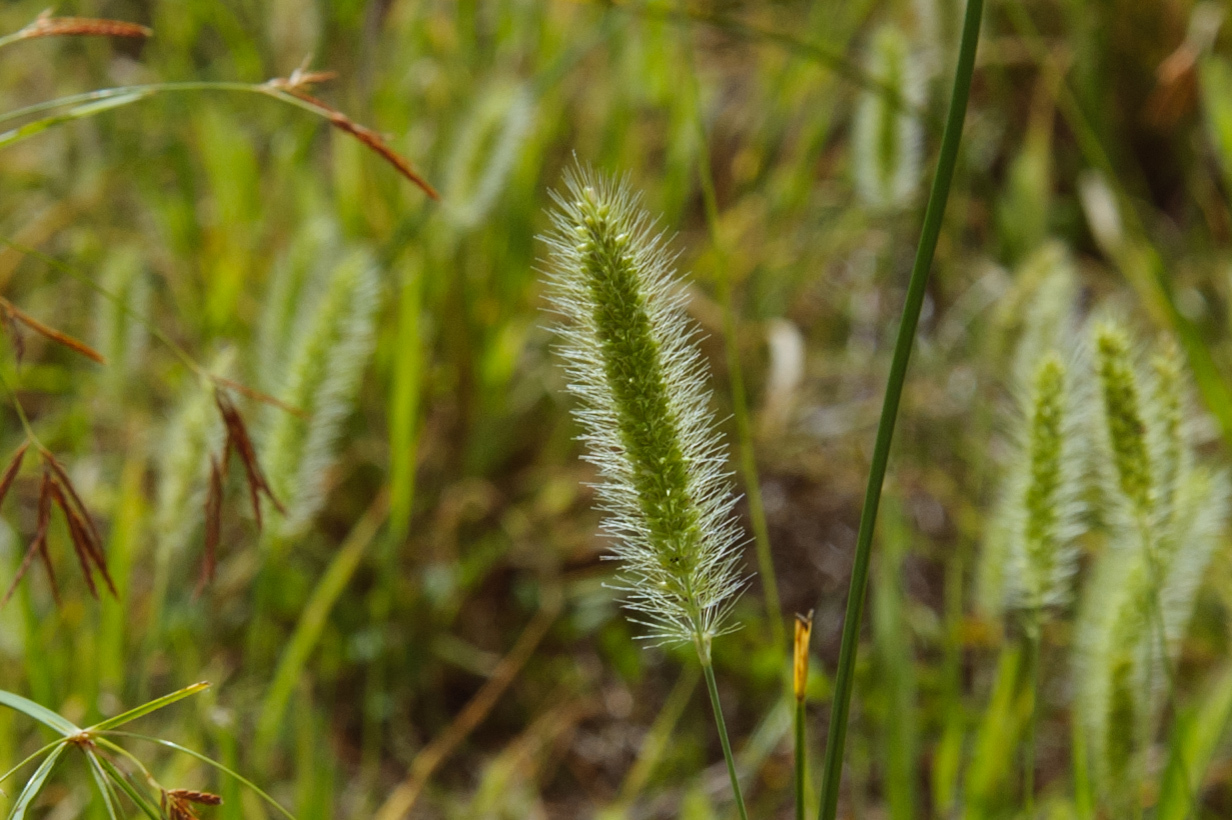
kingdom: Plantae
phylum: Tracheophyta
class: Liliopsida
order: Poales
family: Poaceae
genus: Setaria
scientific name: Setaria viridis
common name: Green bristlegrass
